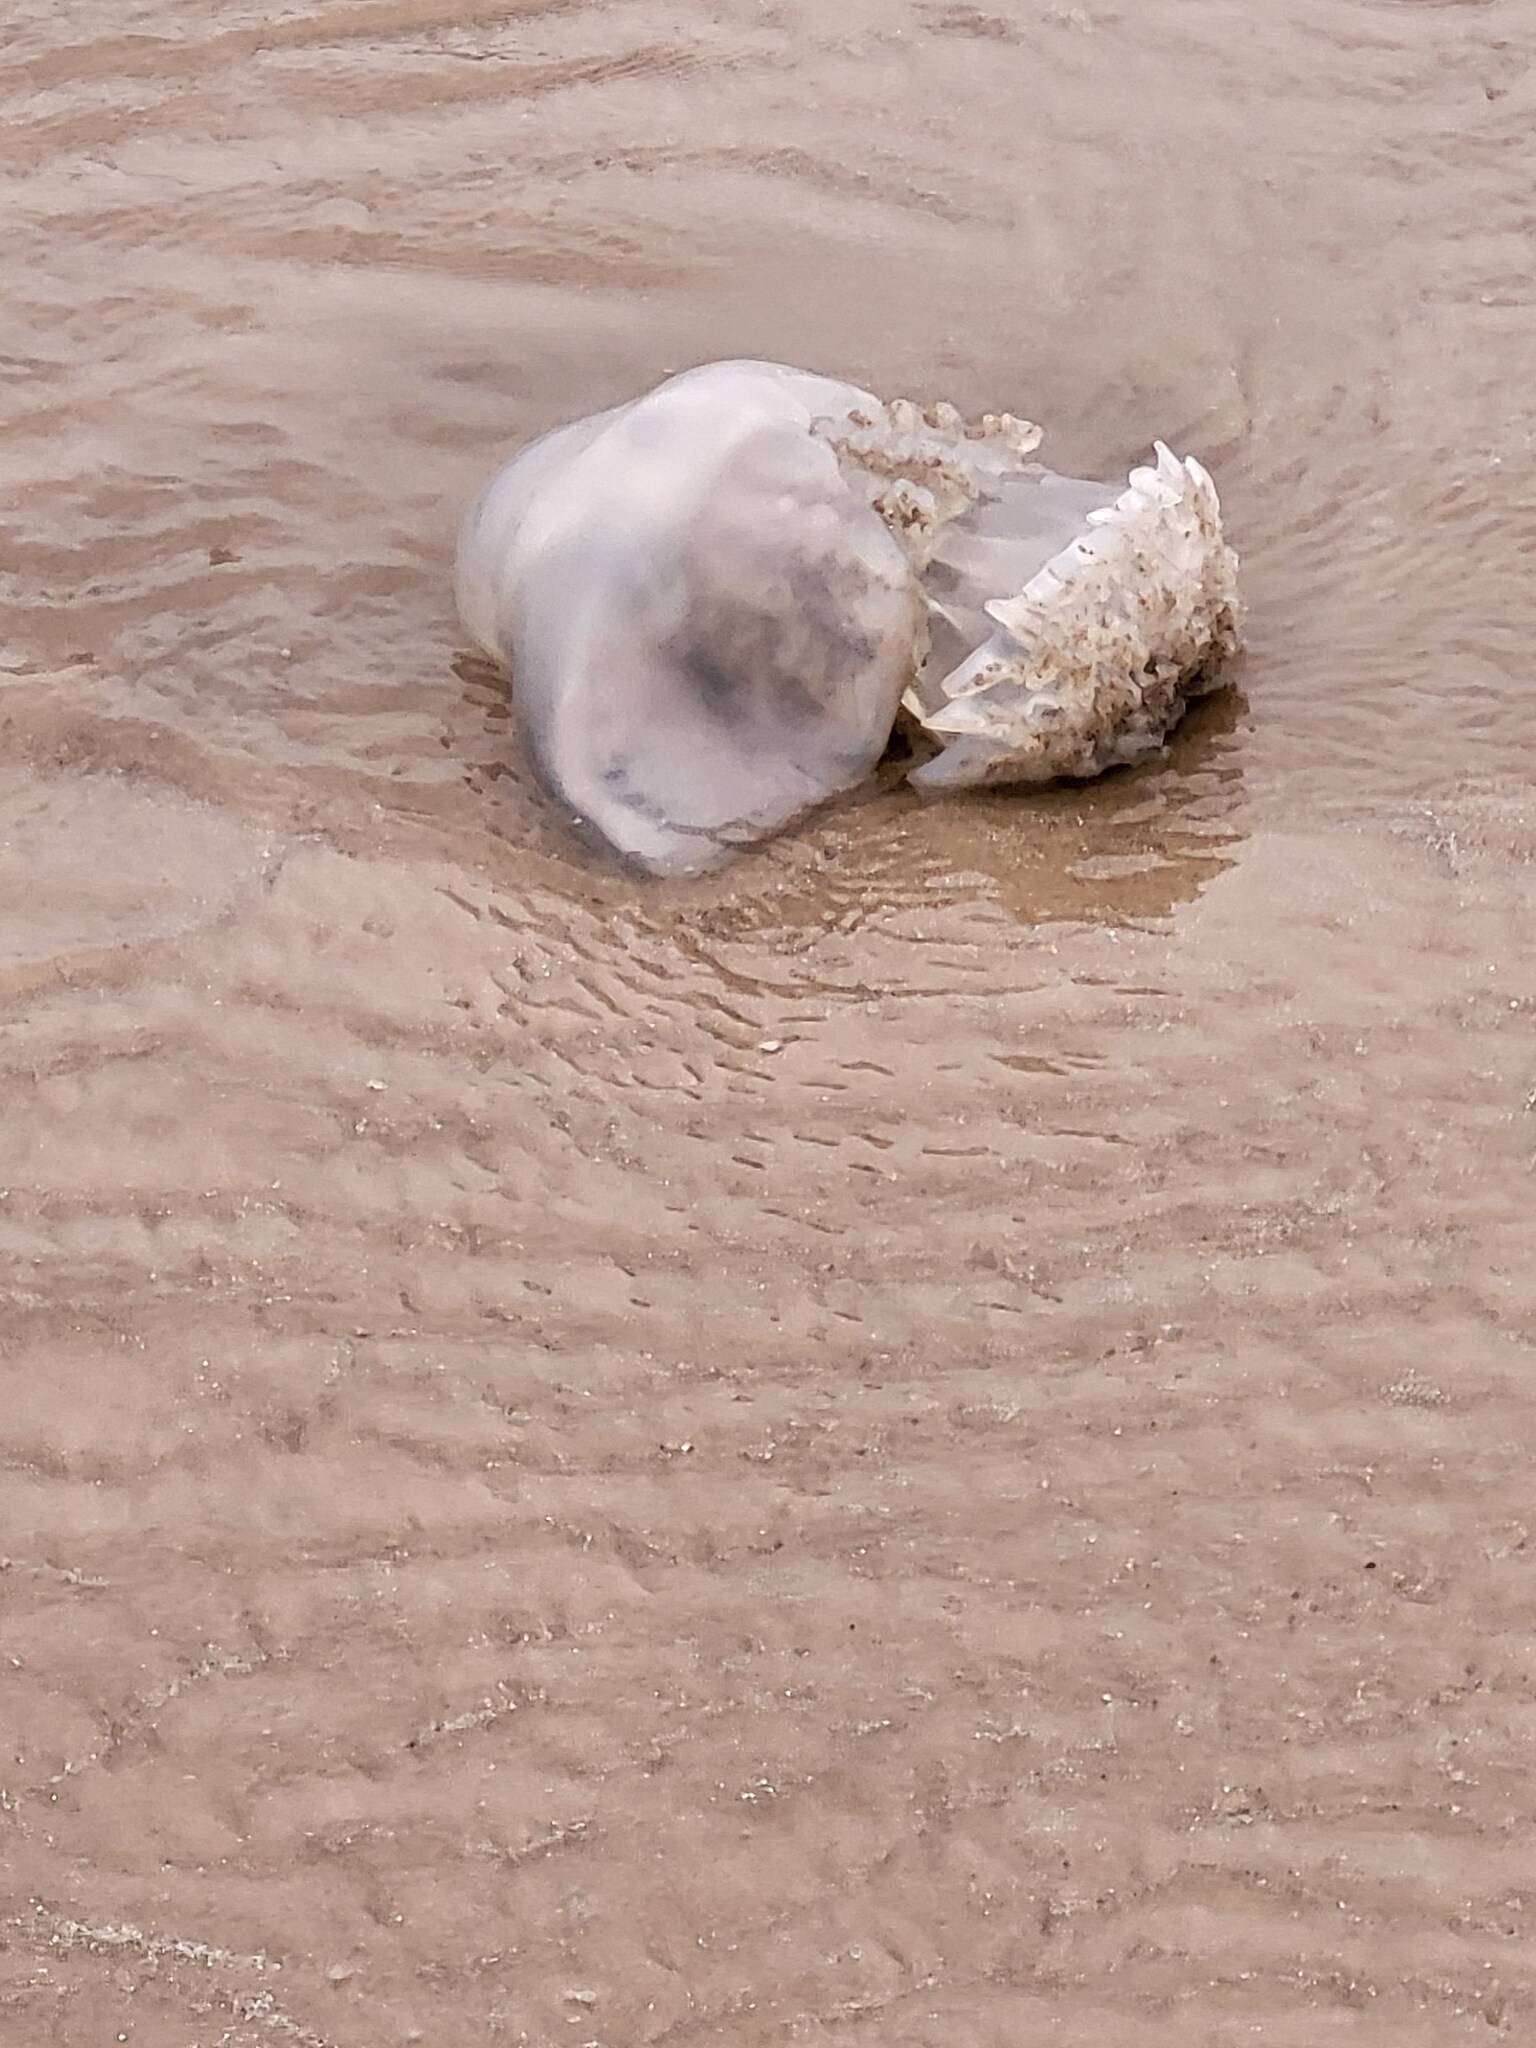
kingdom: Animalia
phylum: Cnidaria
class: Scyphozoa
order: Rhizostomeae
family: Stomolophidae
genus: Stomolophus
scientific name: Stomolophus meleagris
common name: Cabbagehead
